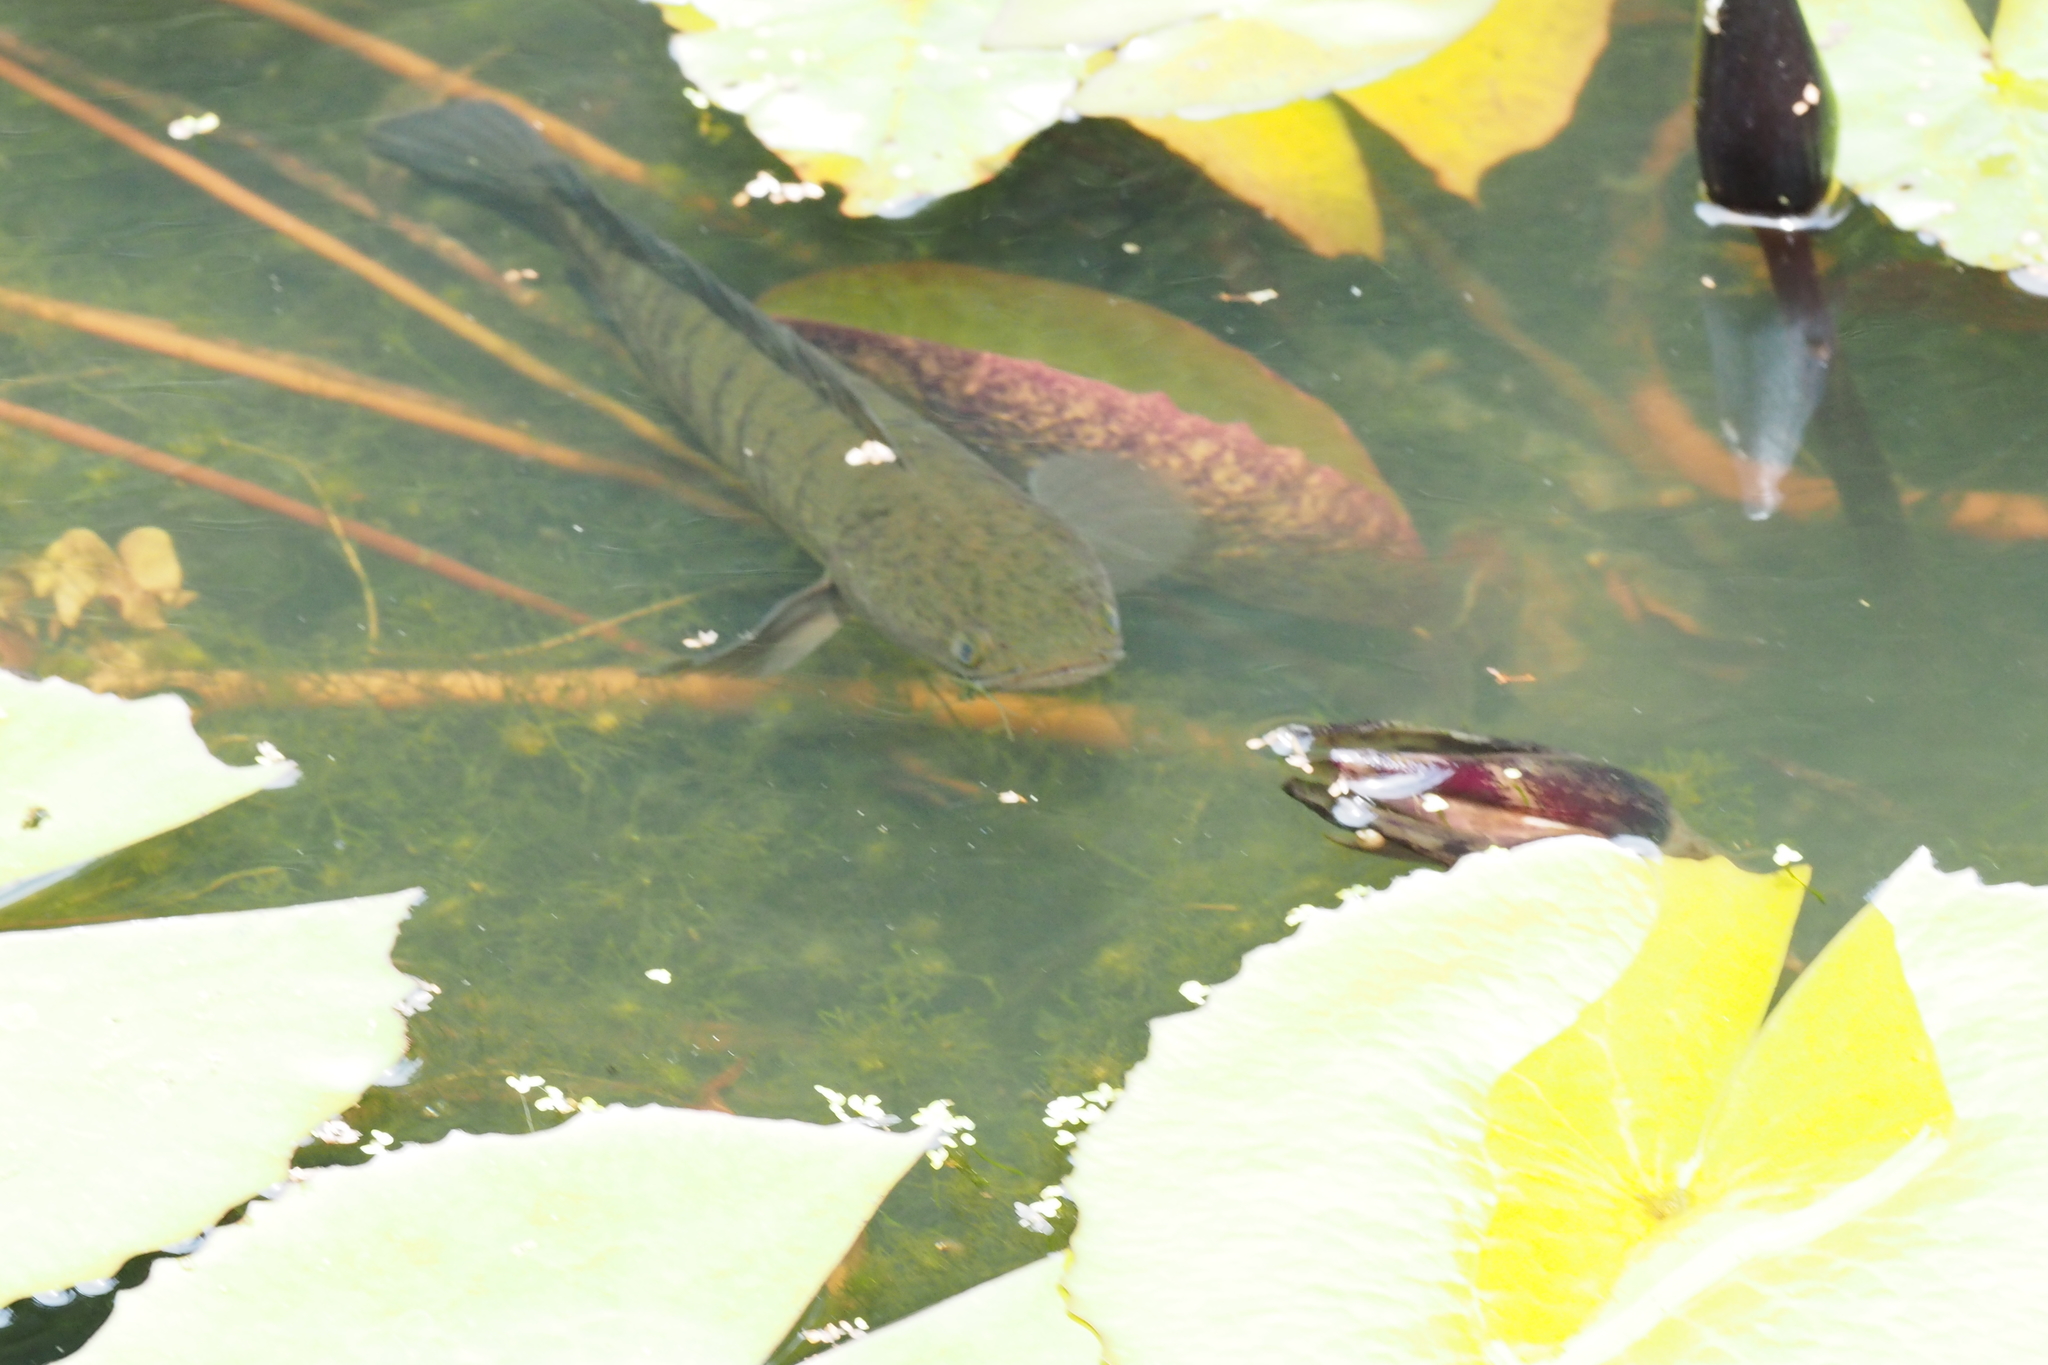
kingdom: Animalia
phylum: Chordata
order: Perciformes
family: Channidae
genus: Channa
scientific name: Channa striata
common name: Striped snakehead
